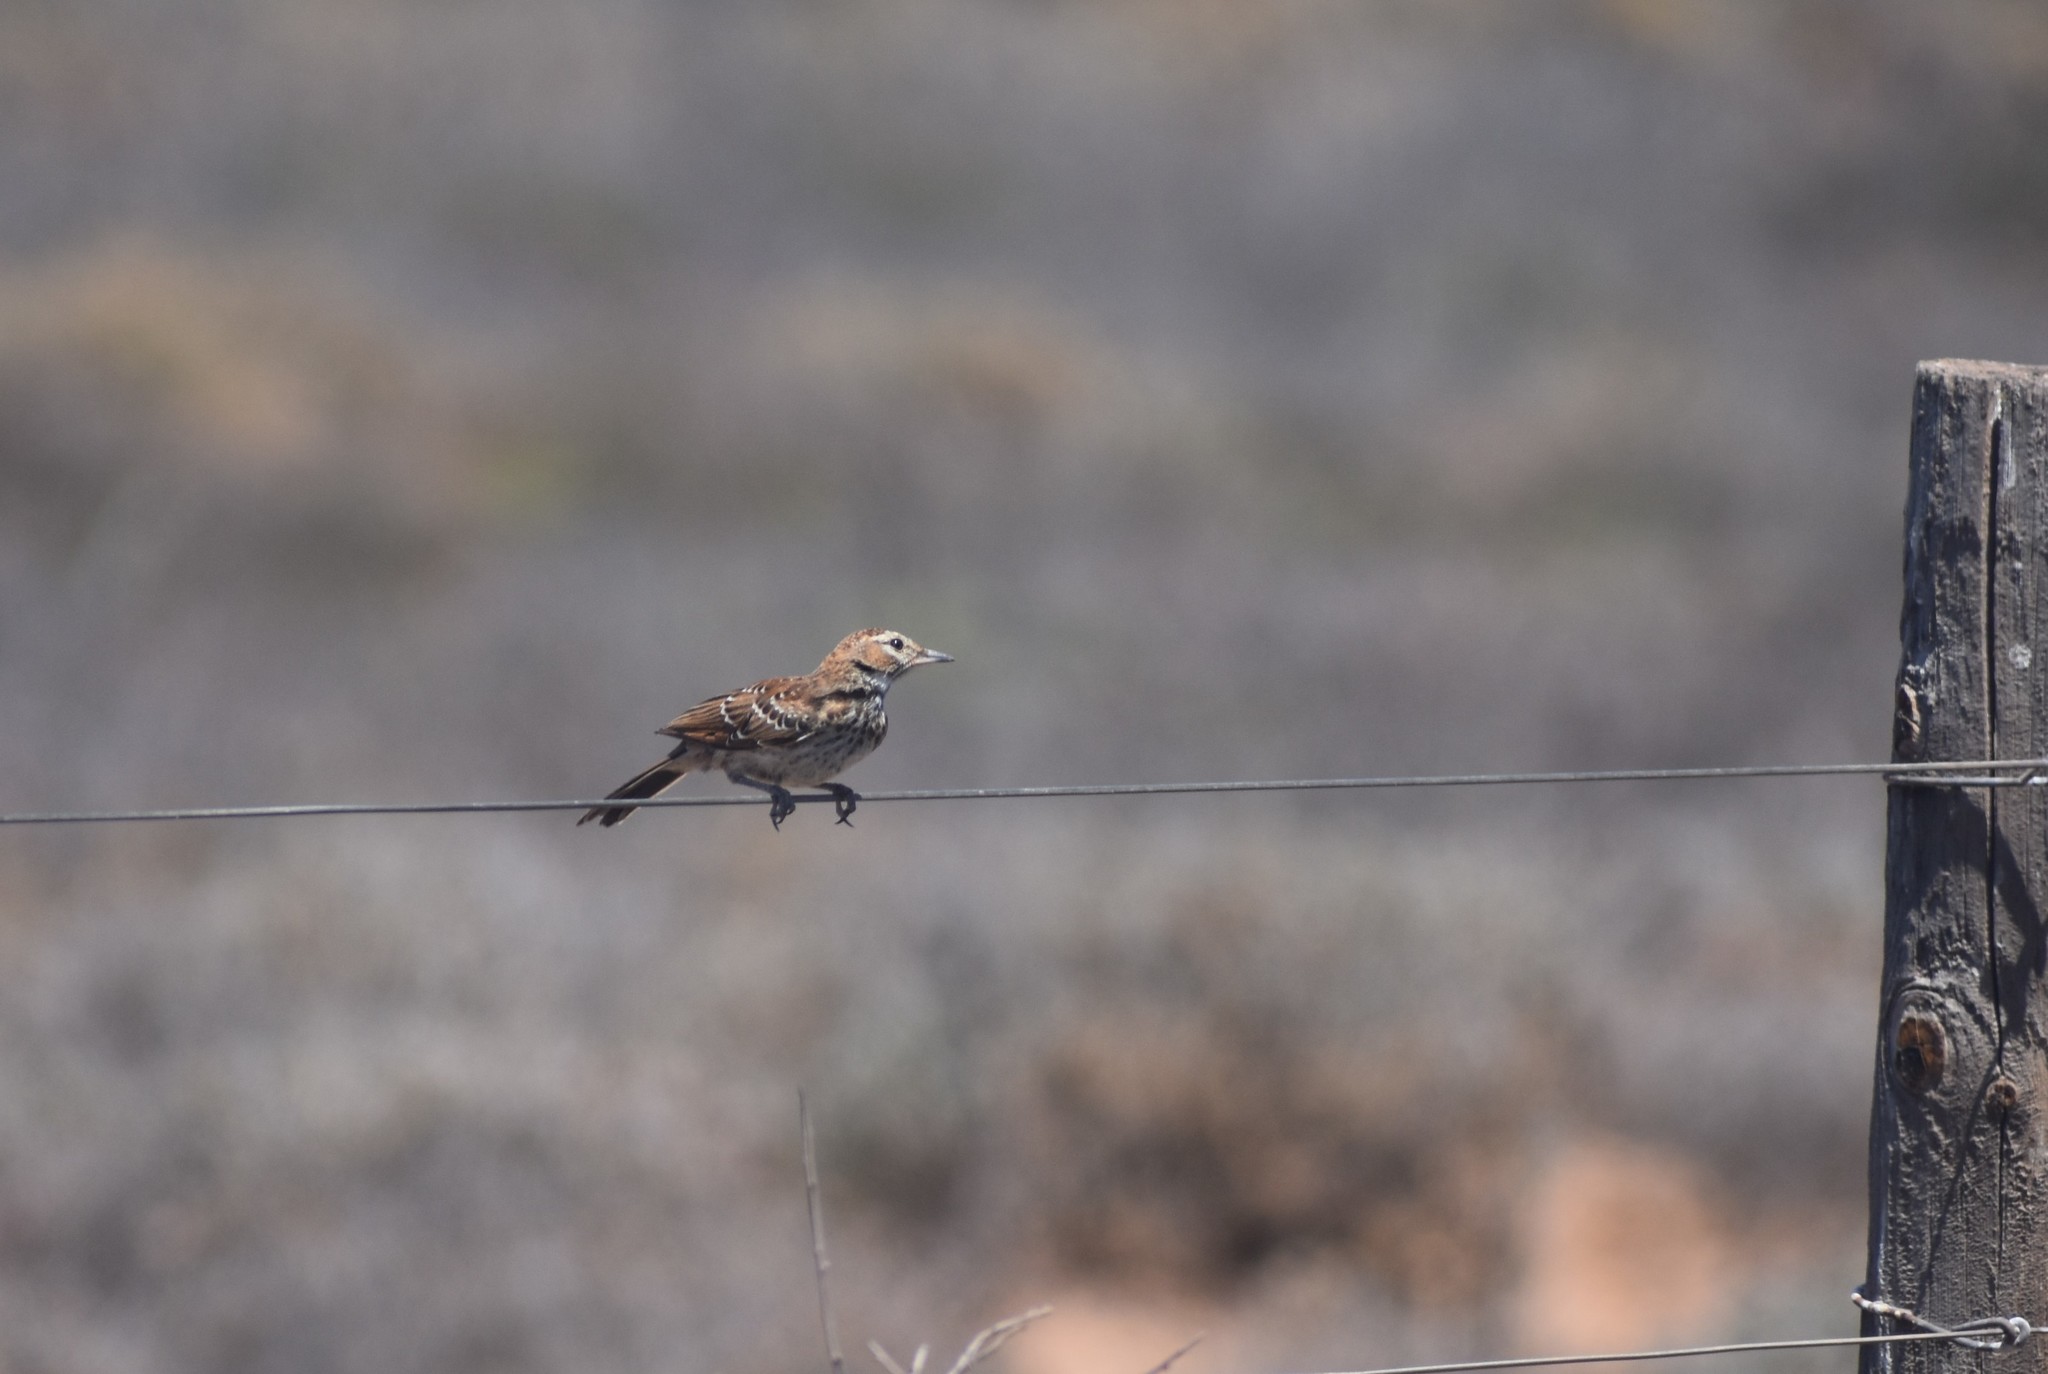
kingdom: Animalia
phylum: Chordata
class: Aves
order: Passeriformes
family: Alaudidae
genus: Calendulauda
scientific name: Calendulauda albescens
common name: Karoo lark
